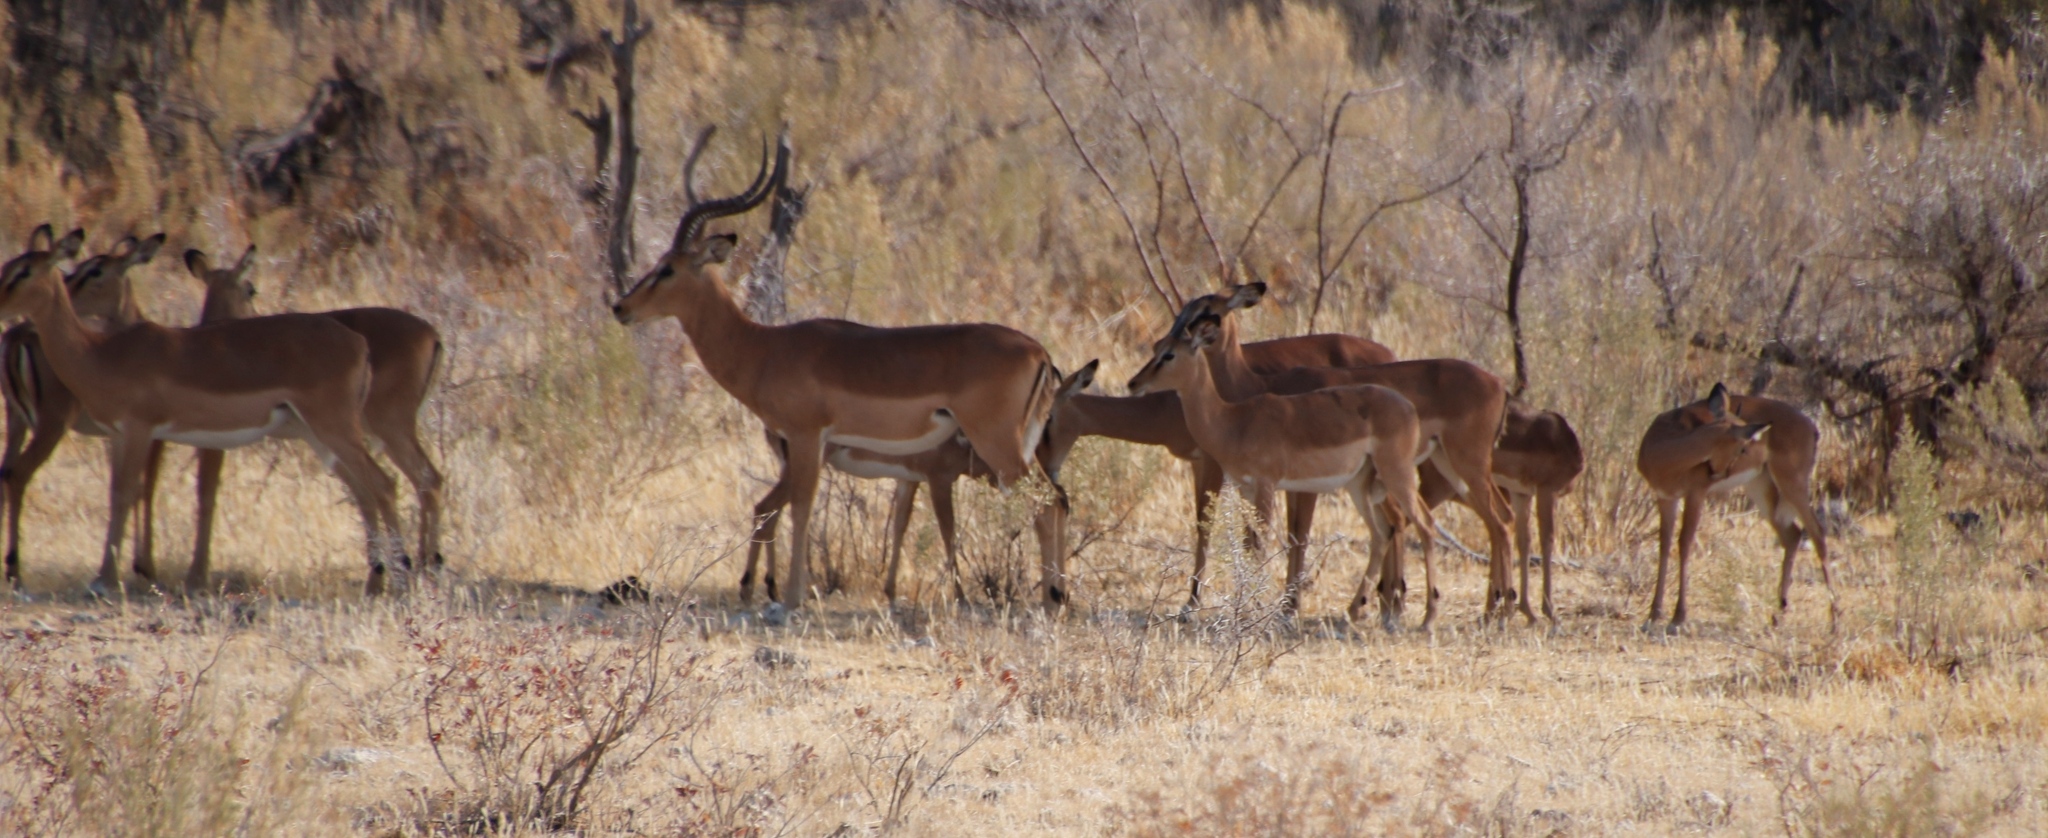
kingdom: Animalia
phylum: Chordata
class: Mammalia
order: Artiodactyla
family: Bovidae
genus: Aepyceros
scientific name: Aepyceros melampus
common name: Impala
